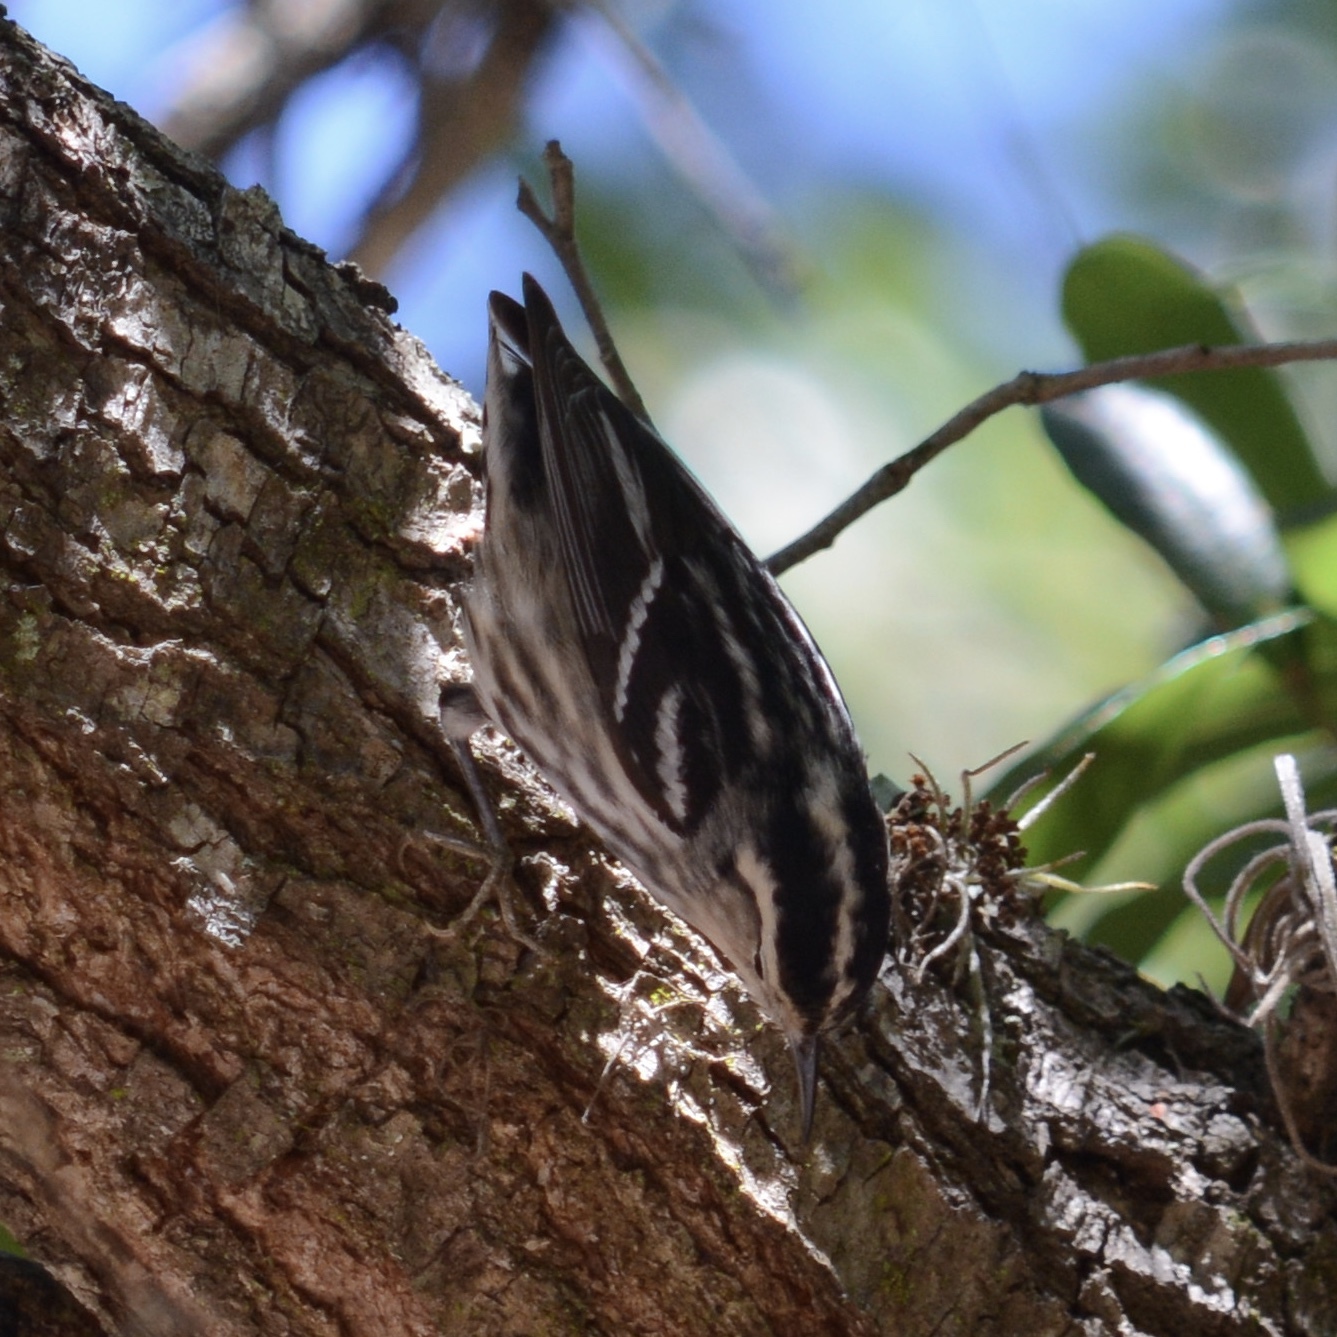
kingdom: Animalia
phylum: Chordata
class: Aves
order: Passeriformes
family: Parulidae
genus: Mniotilta
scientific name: Mniotilta varia
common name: Black-and-white warbler
